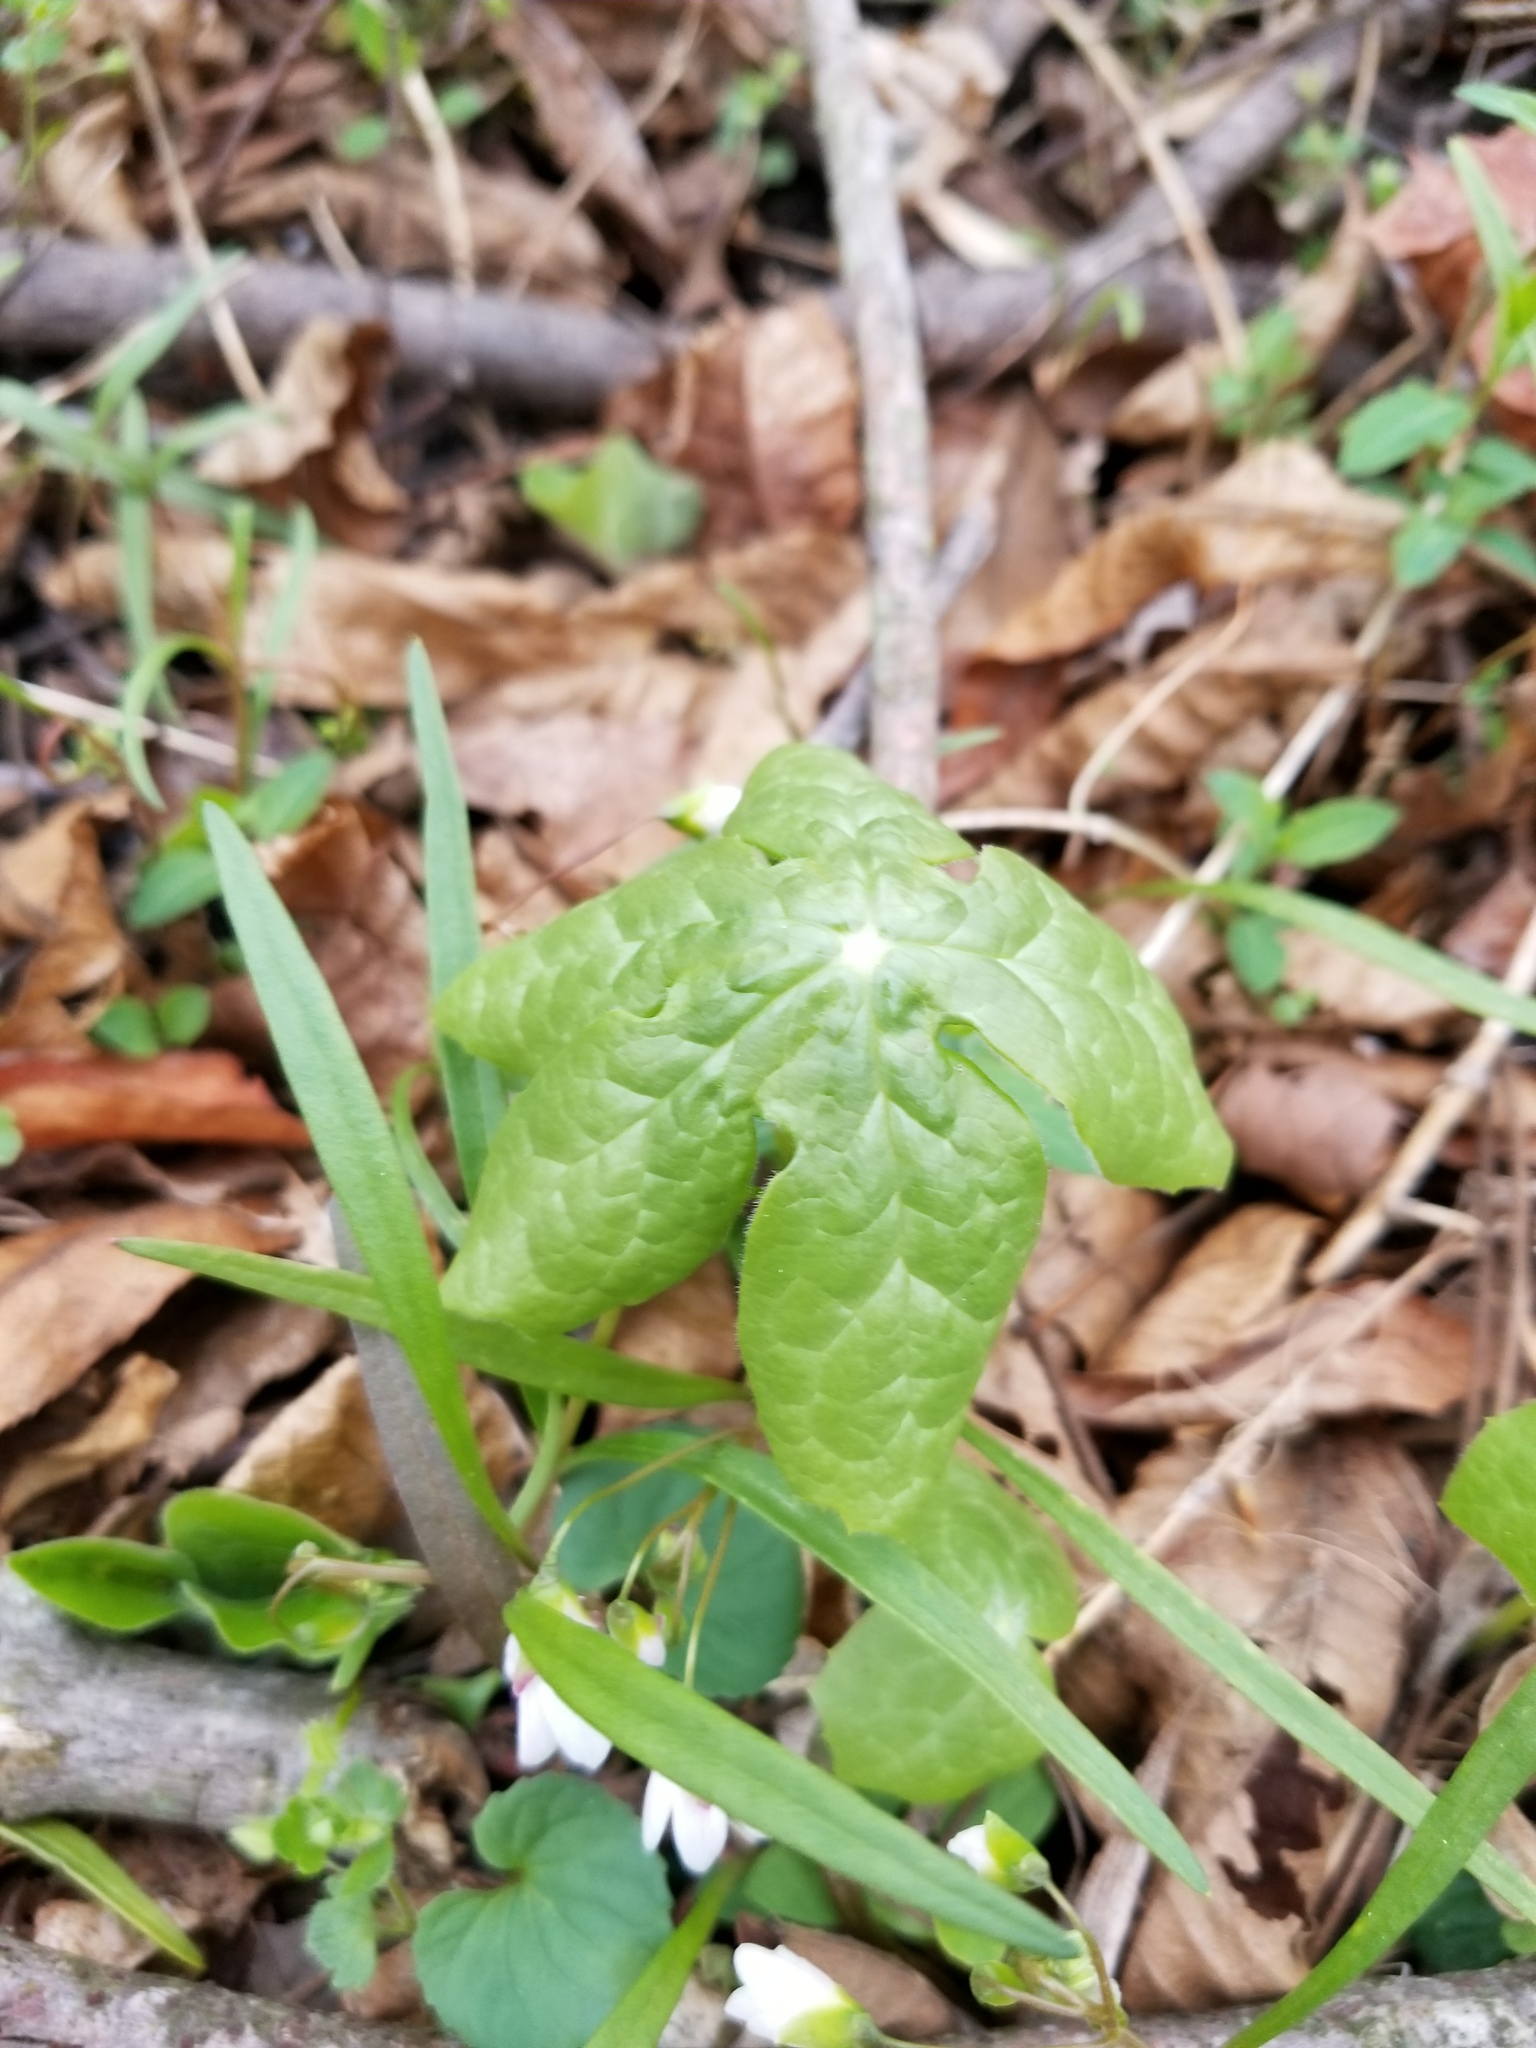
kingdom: Plantae
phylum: Tracheophyta
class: Magnoliopsida
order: Ranunculales
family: Berberidaceae
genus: Podophyllum
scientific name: Podophyllum peltatum
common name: Wild mandrake
